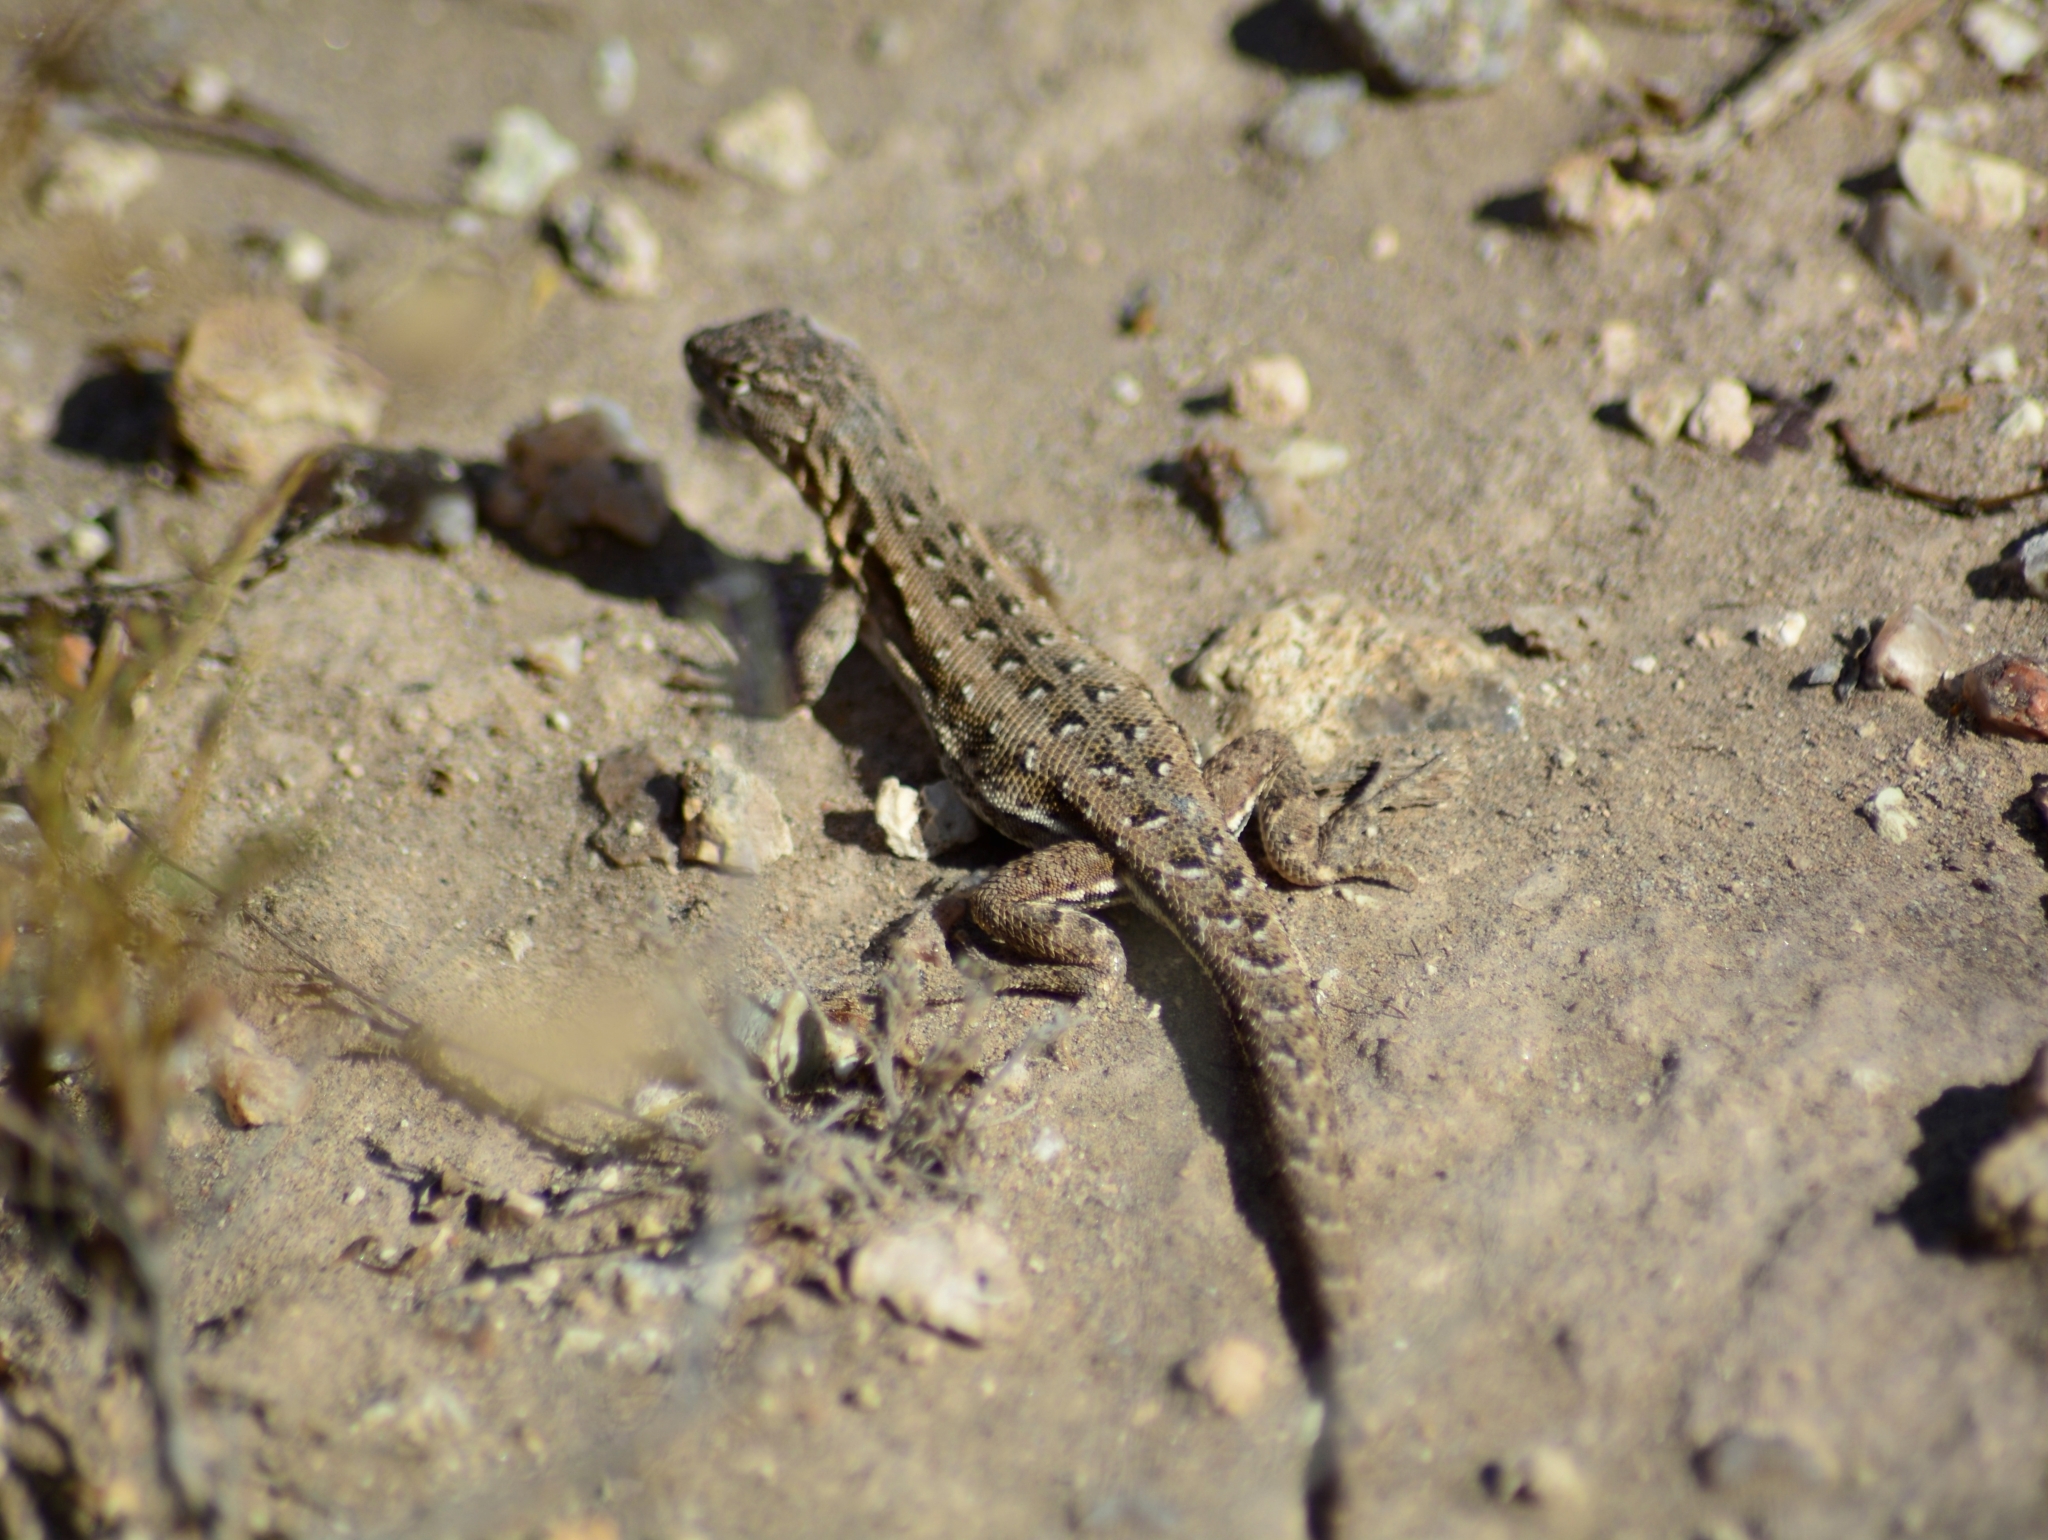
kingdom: Animalia
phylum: Chordata
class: Squamata
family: Liolaemidae
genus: Liolaemus
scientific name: Liolaemus darwinii
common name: Darwin's tree iguana
